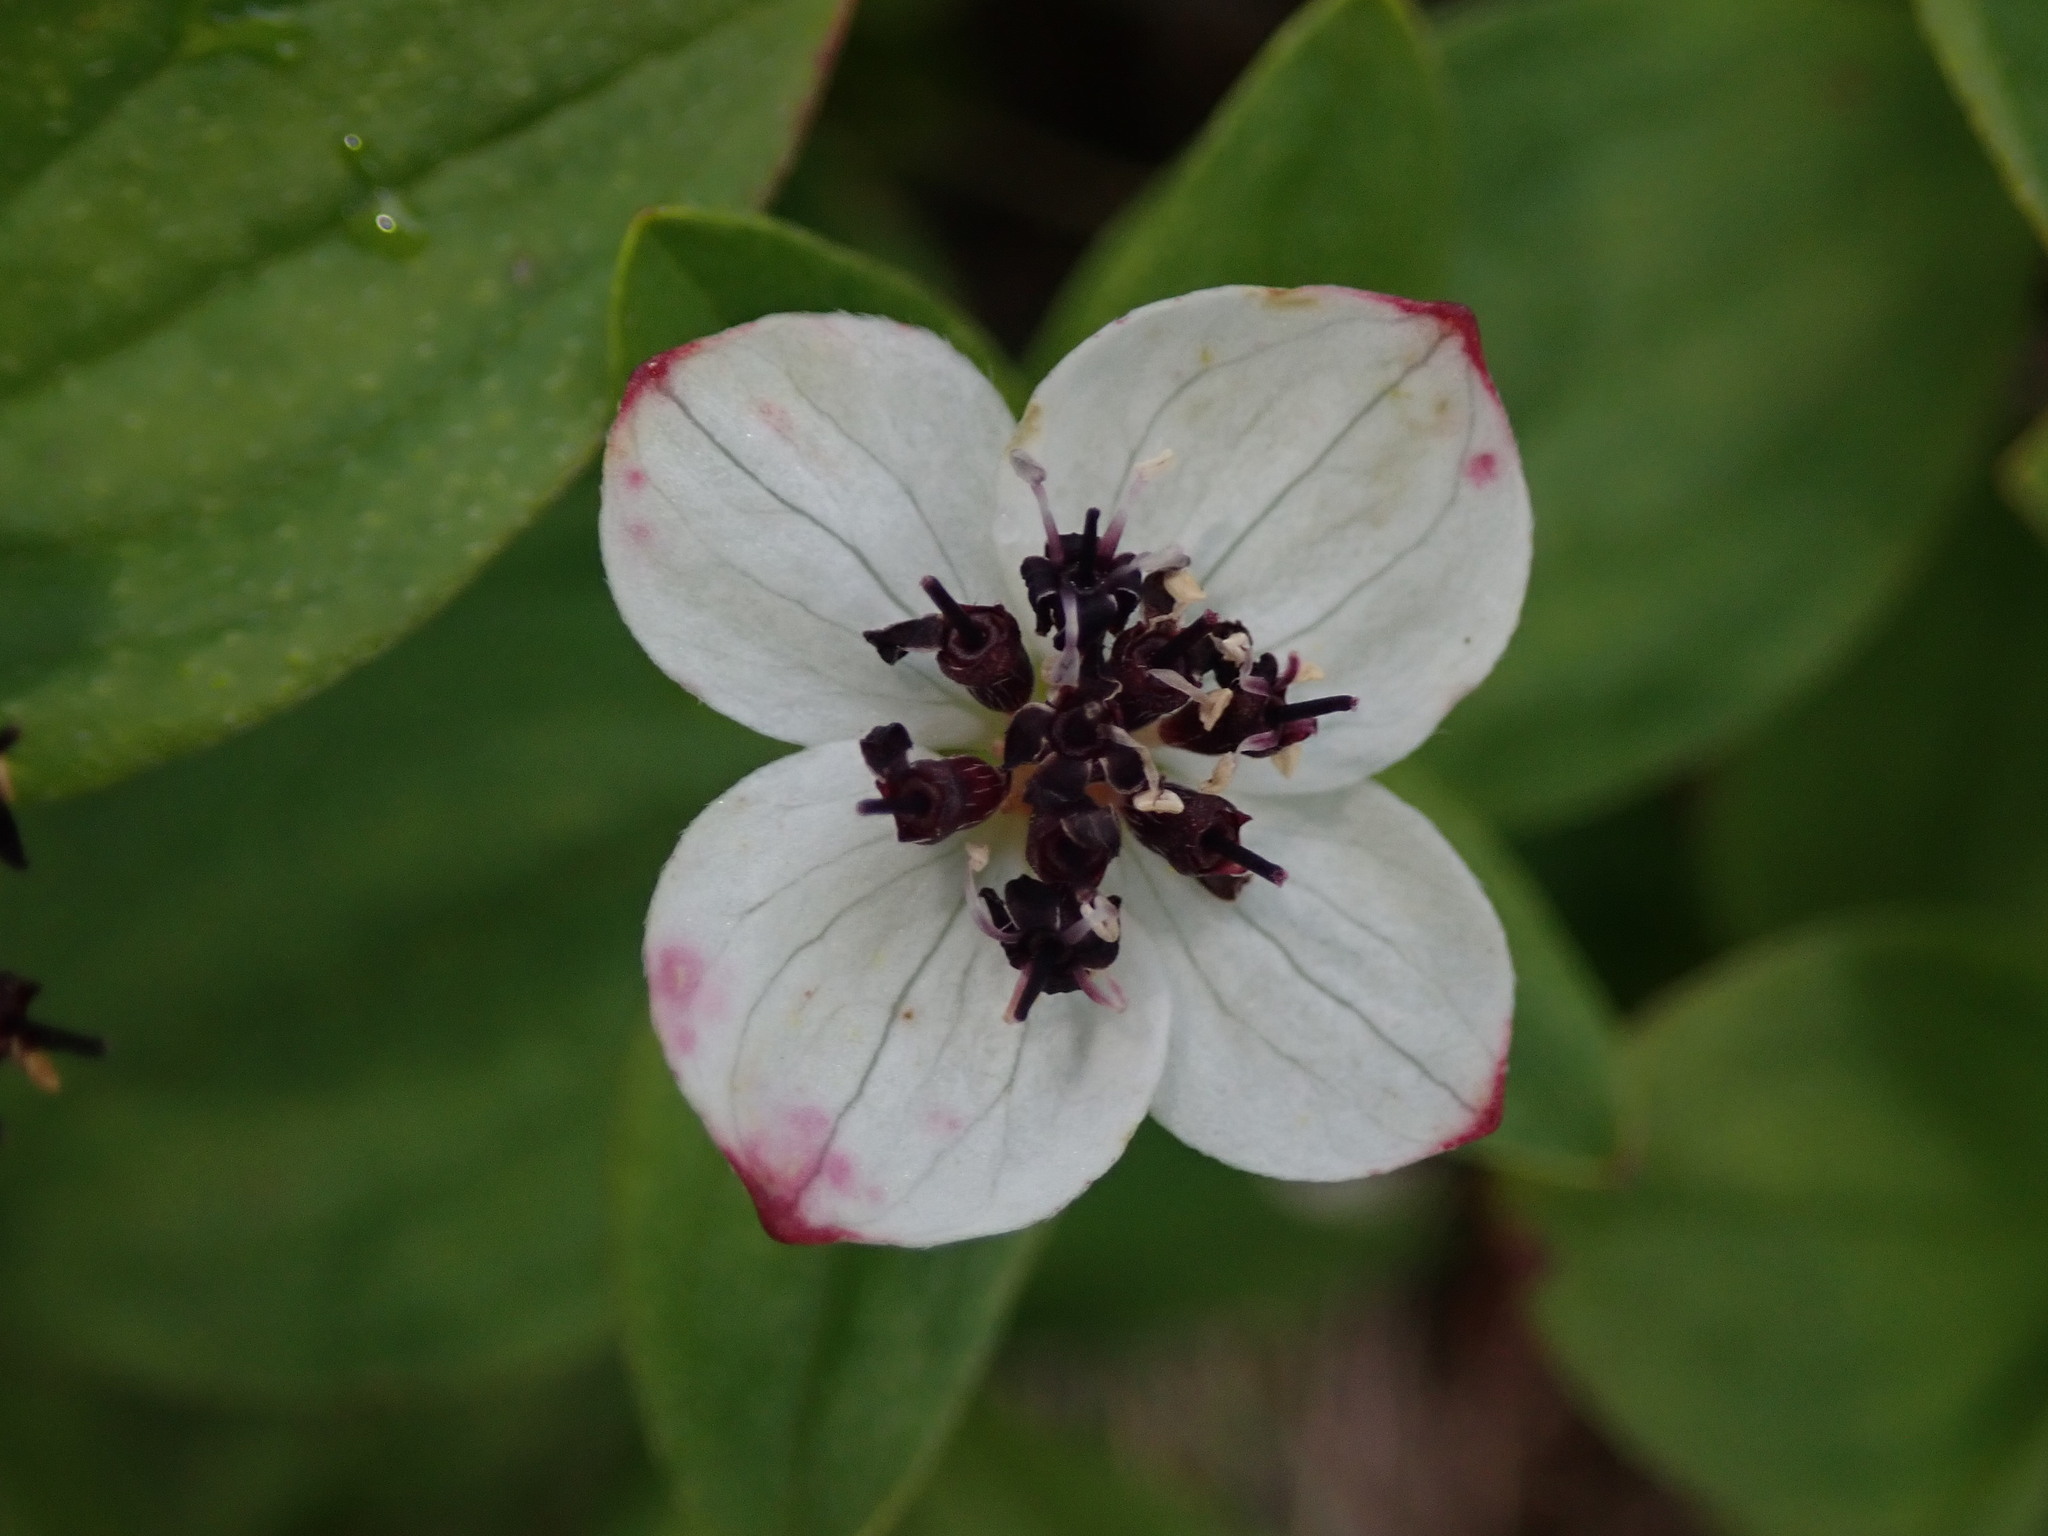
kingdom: Plantae
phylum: Tracheophyta
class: Magnoliopsida
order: Cornales
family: Cornaceae
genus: Cornus
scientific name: Cornus suecica
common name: Dwarf cornel
